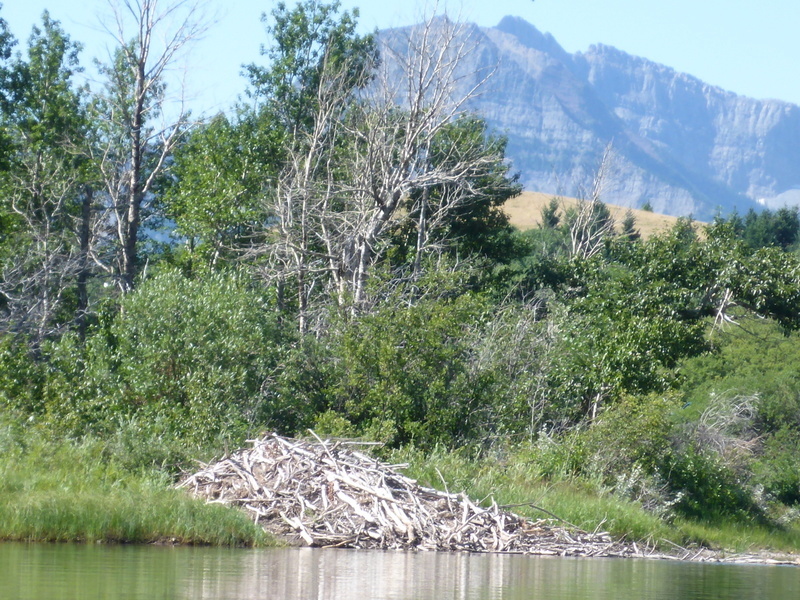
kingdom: Animalia
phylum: Chordata
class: Mammalia
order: Rodentia
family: Castoridae
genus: Castor
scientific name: Castor canadensis
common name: American beaver
